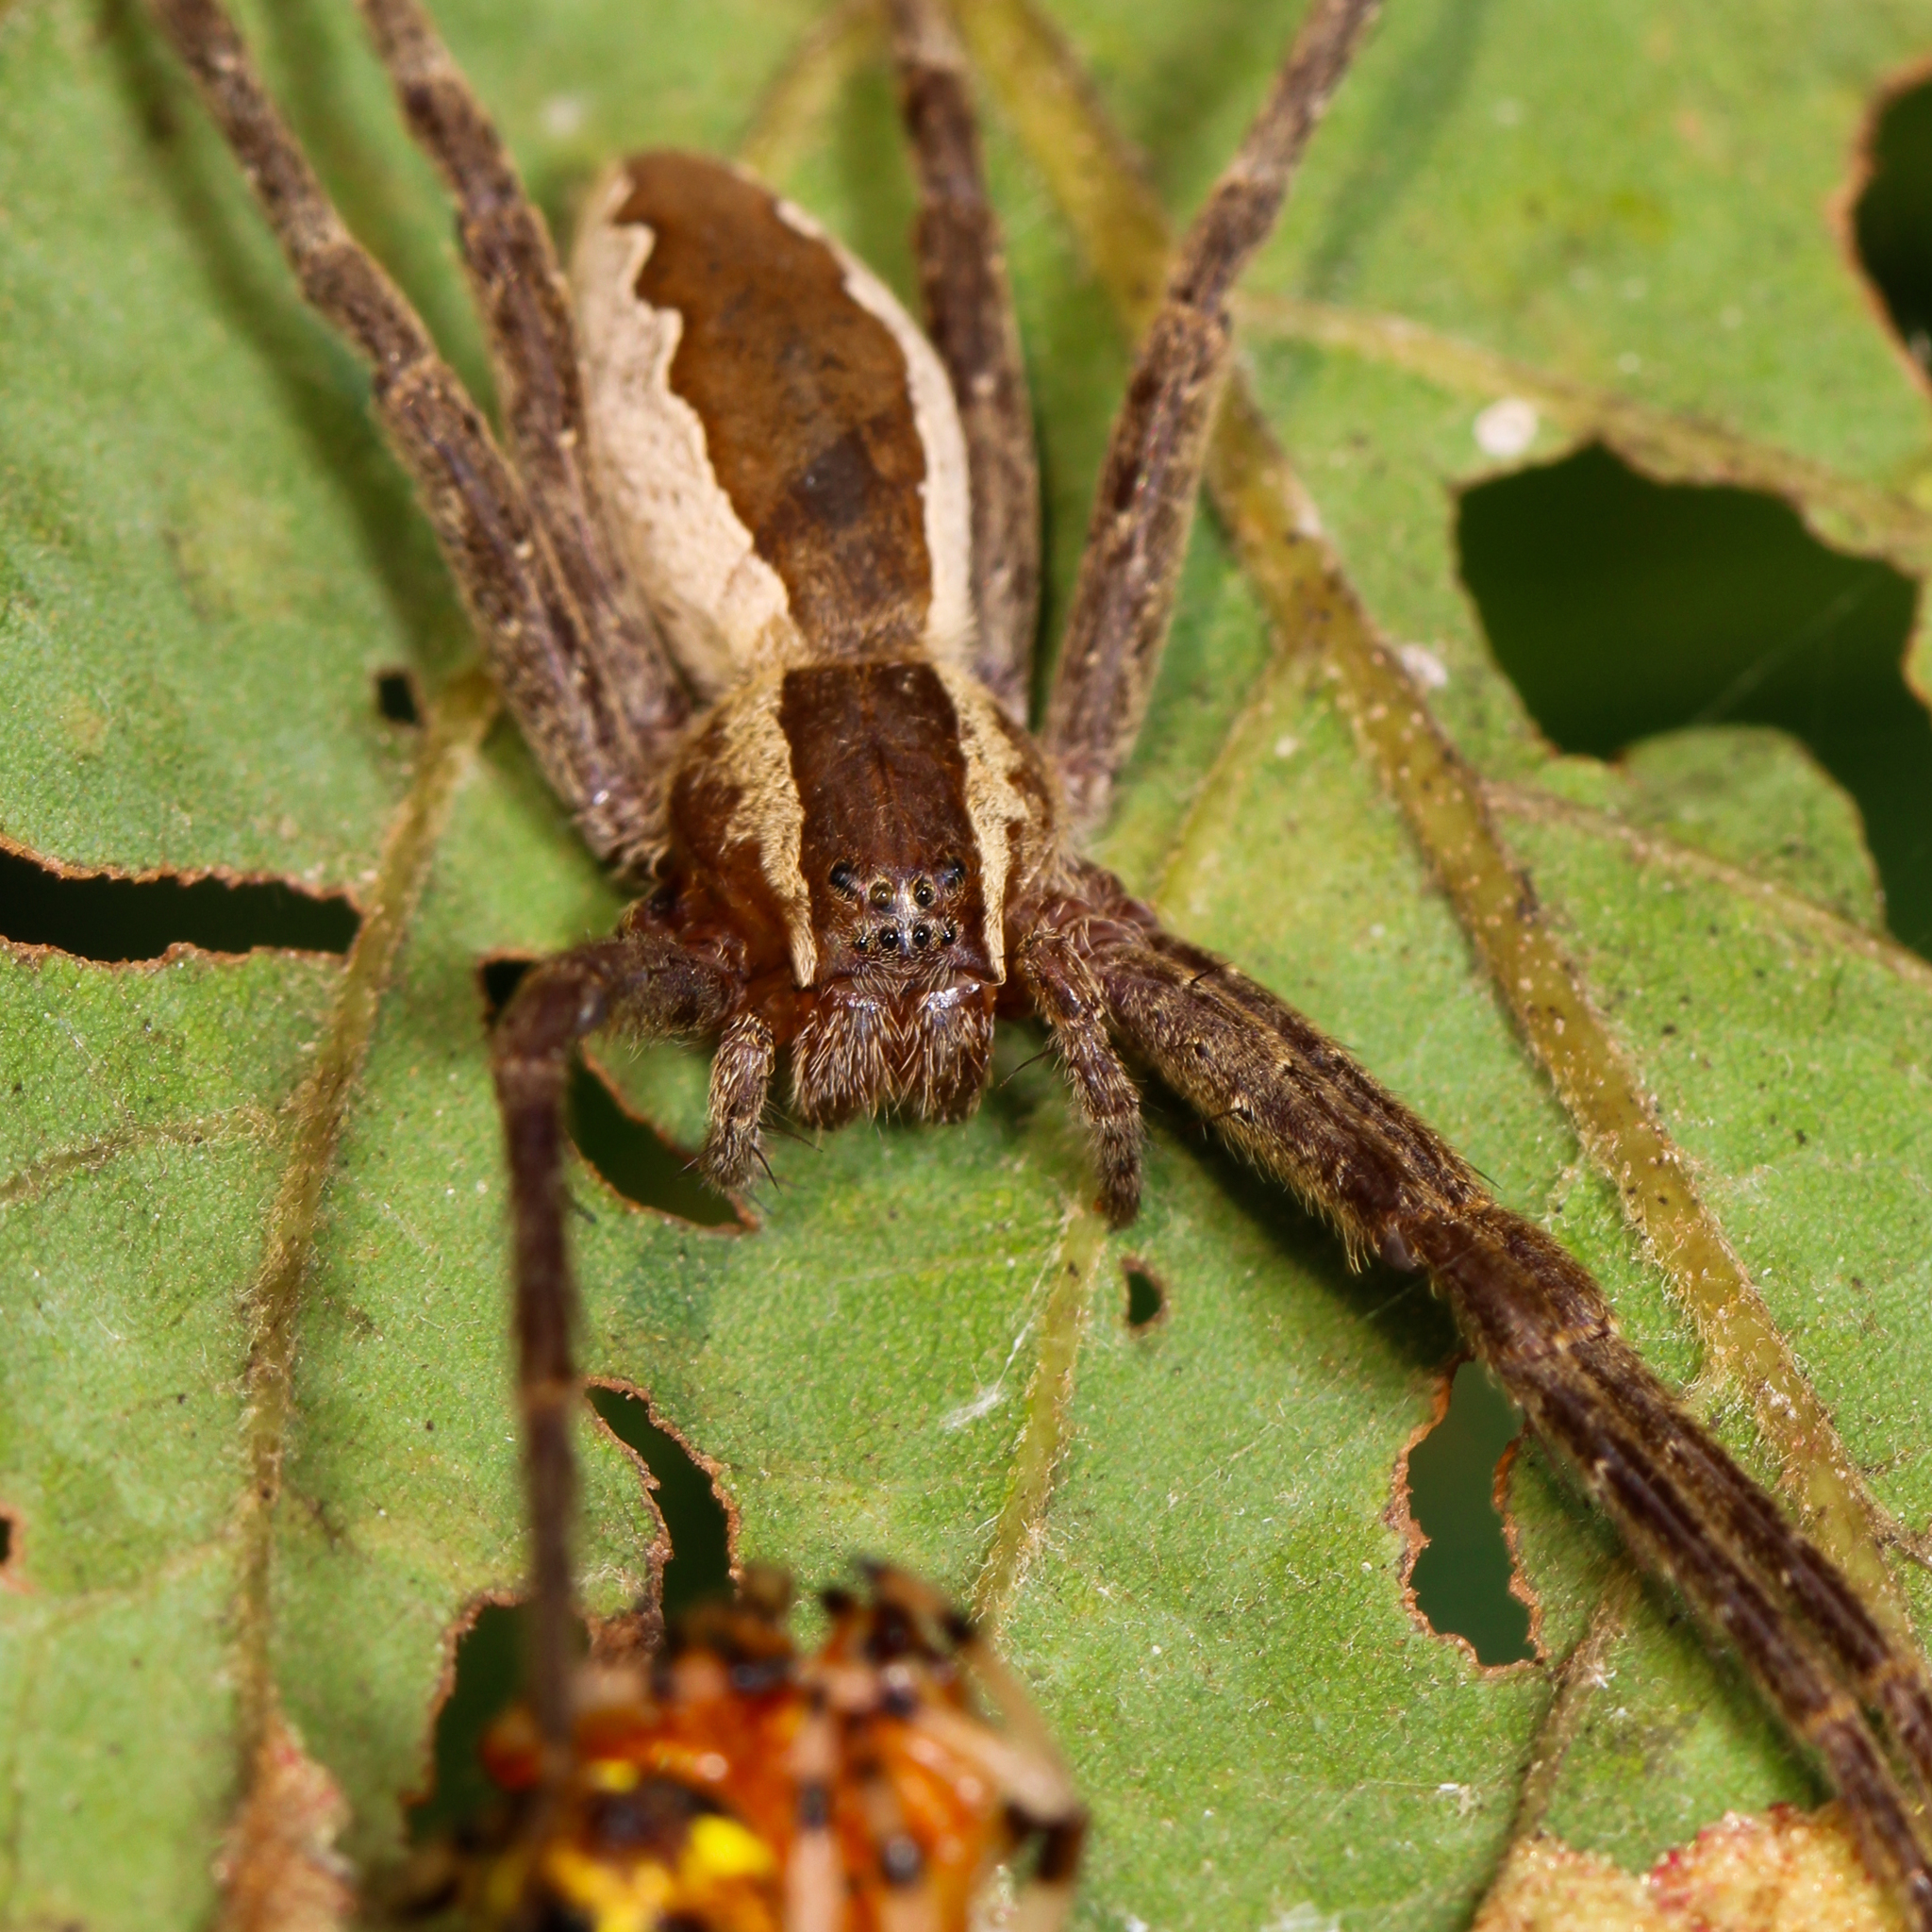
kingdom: Animalia
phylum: Arthropoda
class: Arachnida
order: Araneae
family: Pisauridae
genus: Pisaurina
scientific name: Pisaurina mira
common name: American nursery web spider
